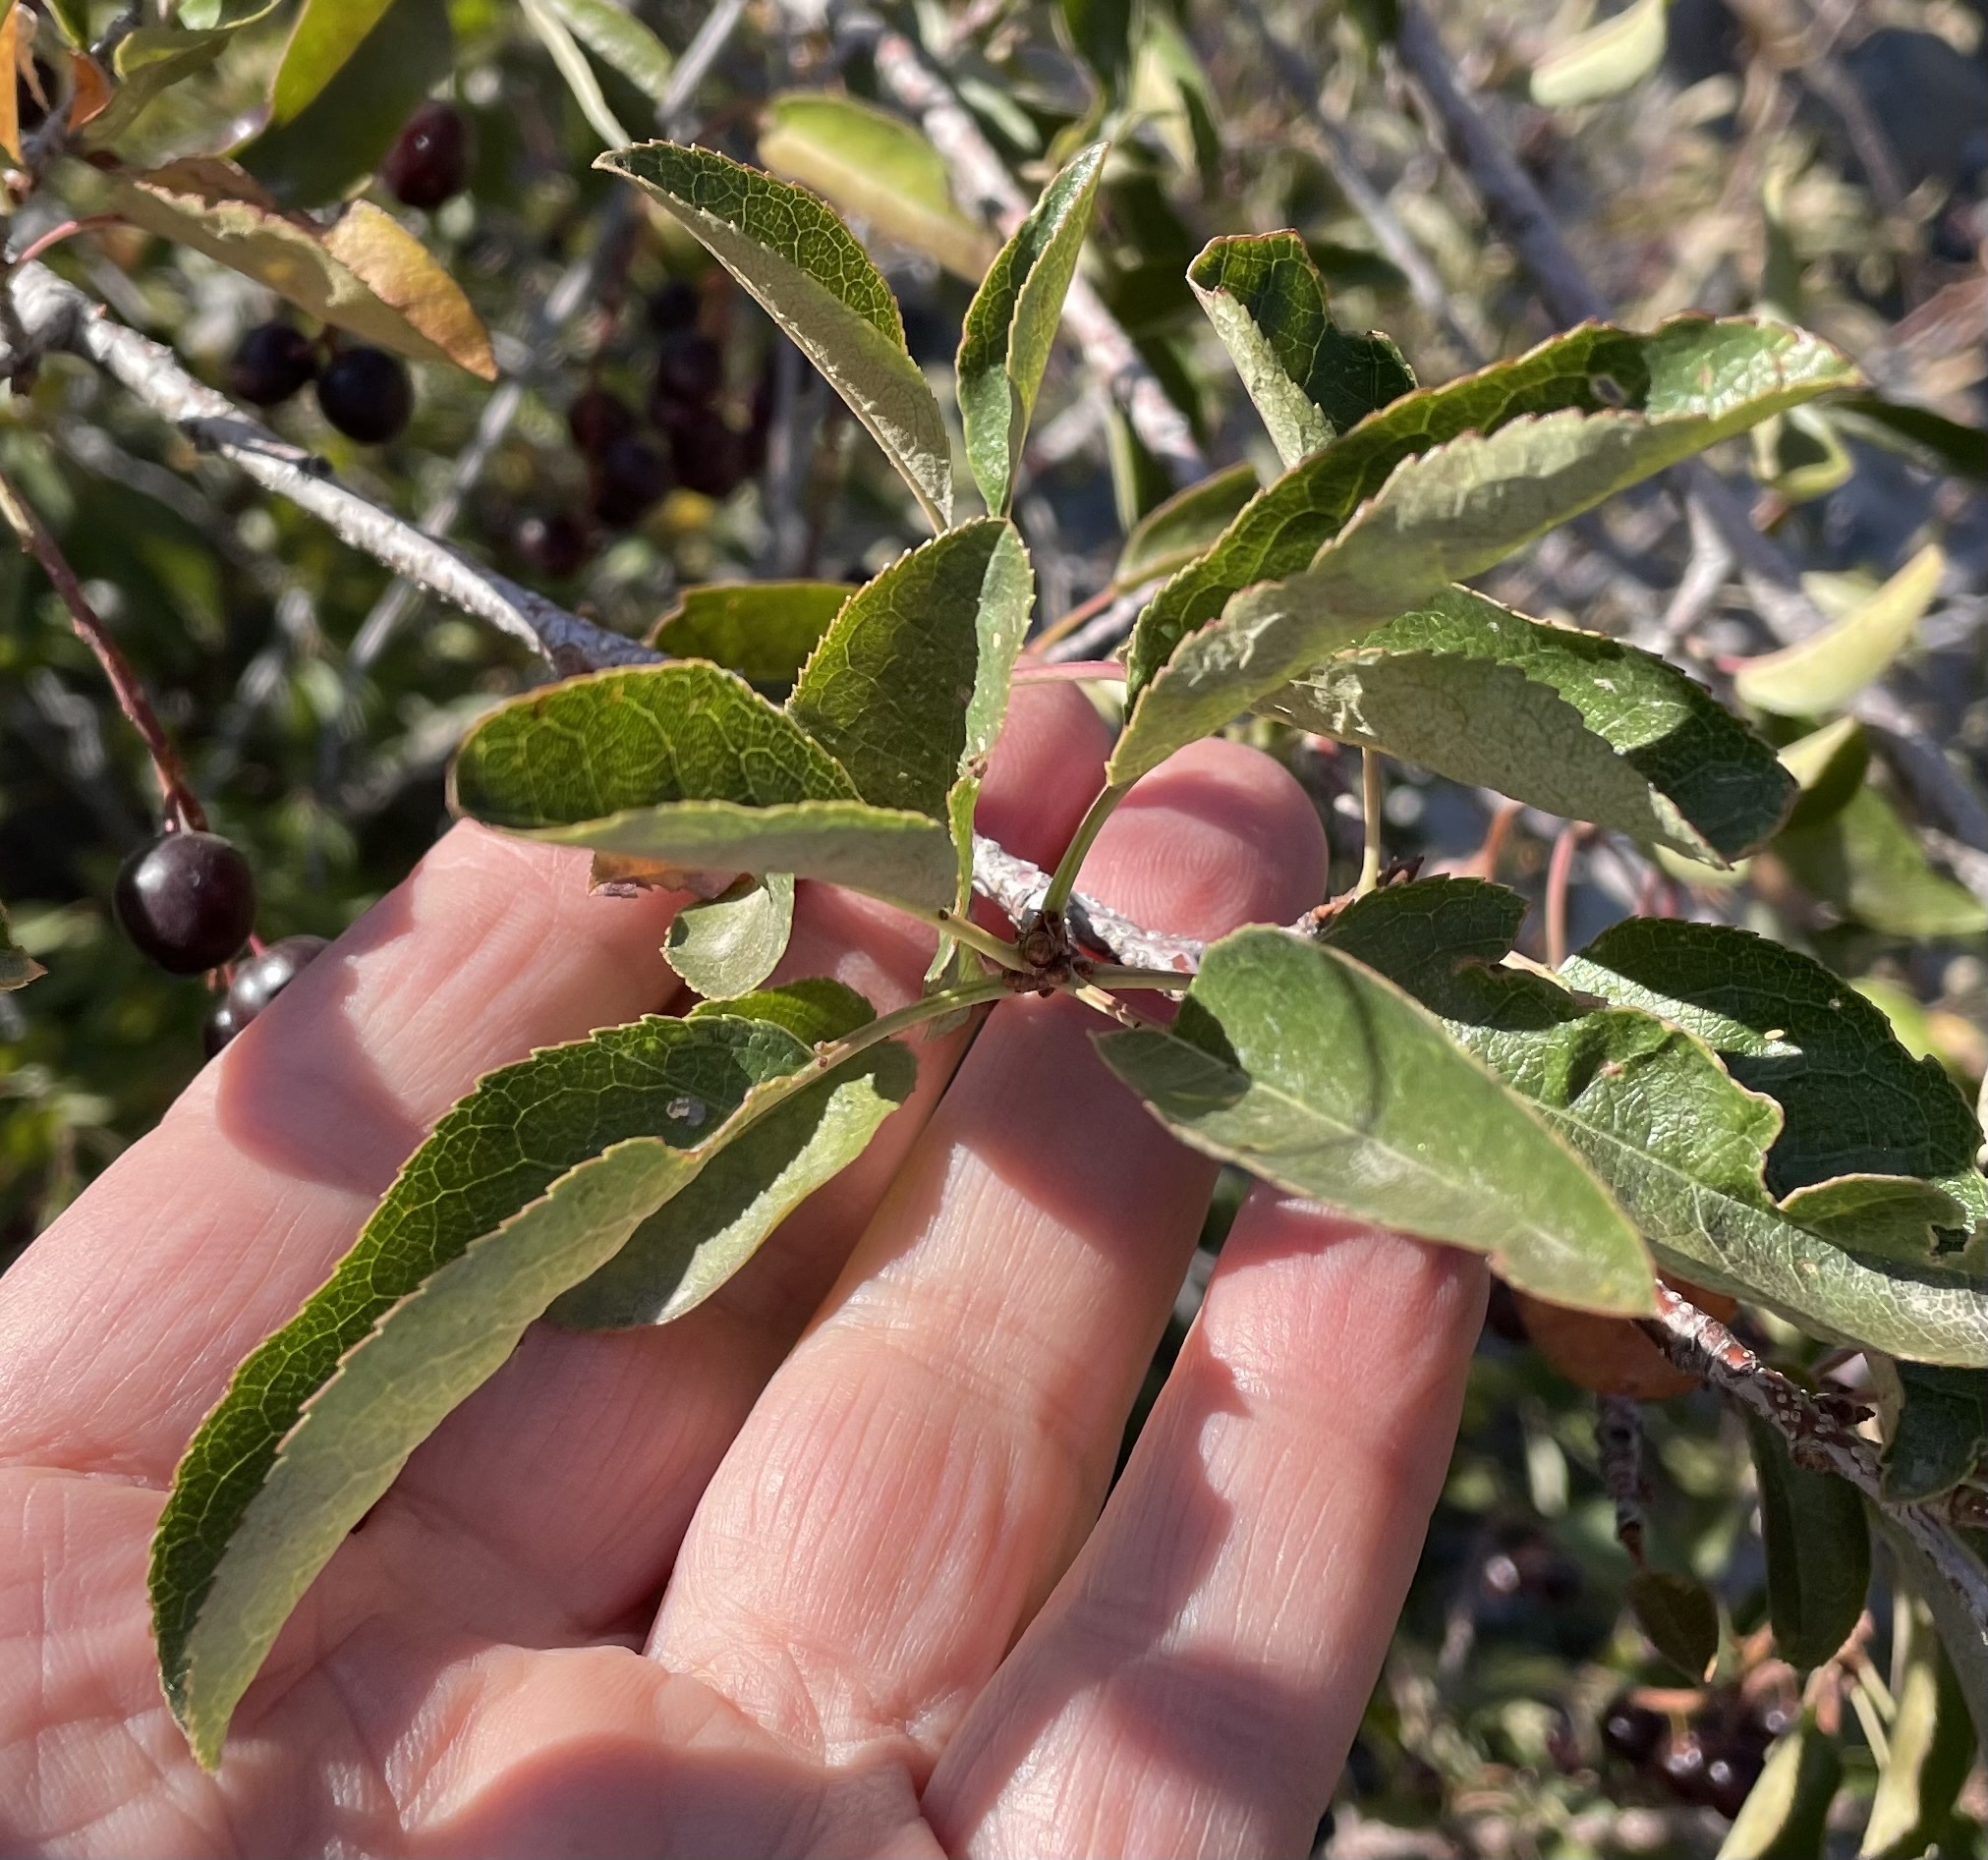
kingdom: Plantae
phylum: Tracheophyta
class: Magnoliopsida
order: Rosales
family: Rosaceae
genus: Prunus
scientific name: Prunus virginiana
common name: Chokecherry
